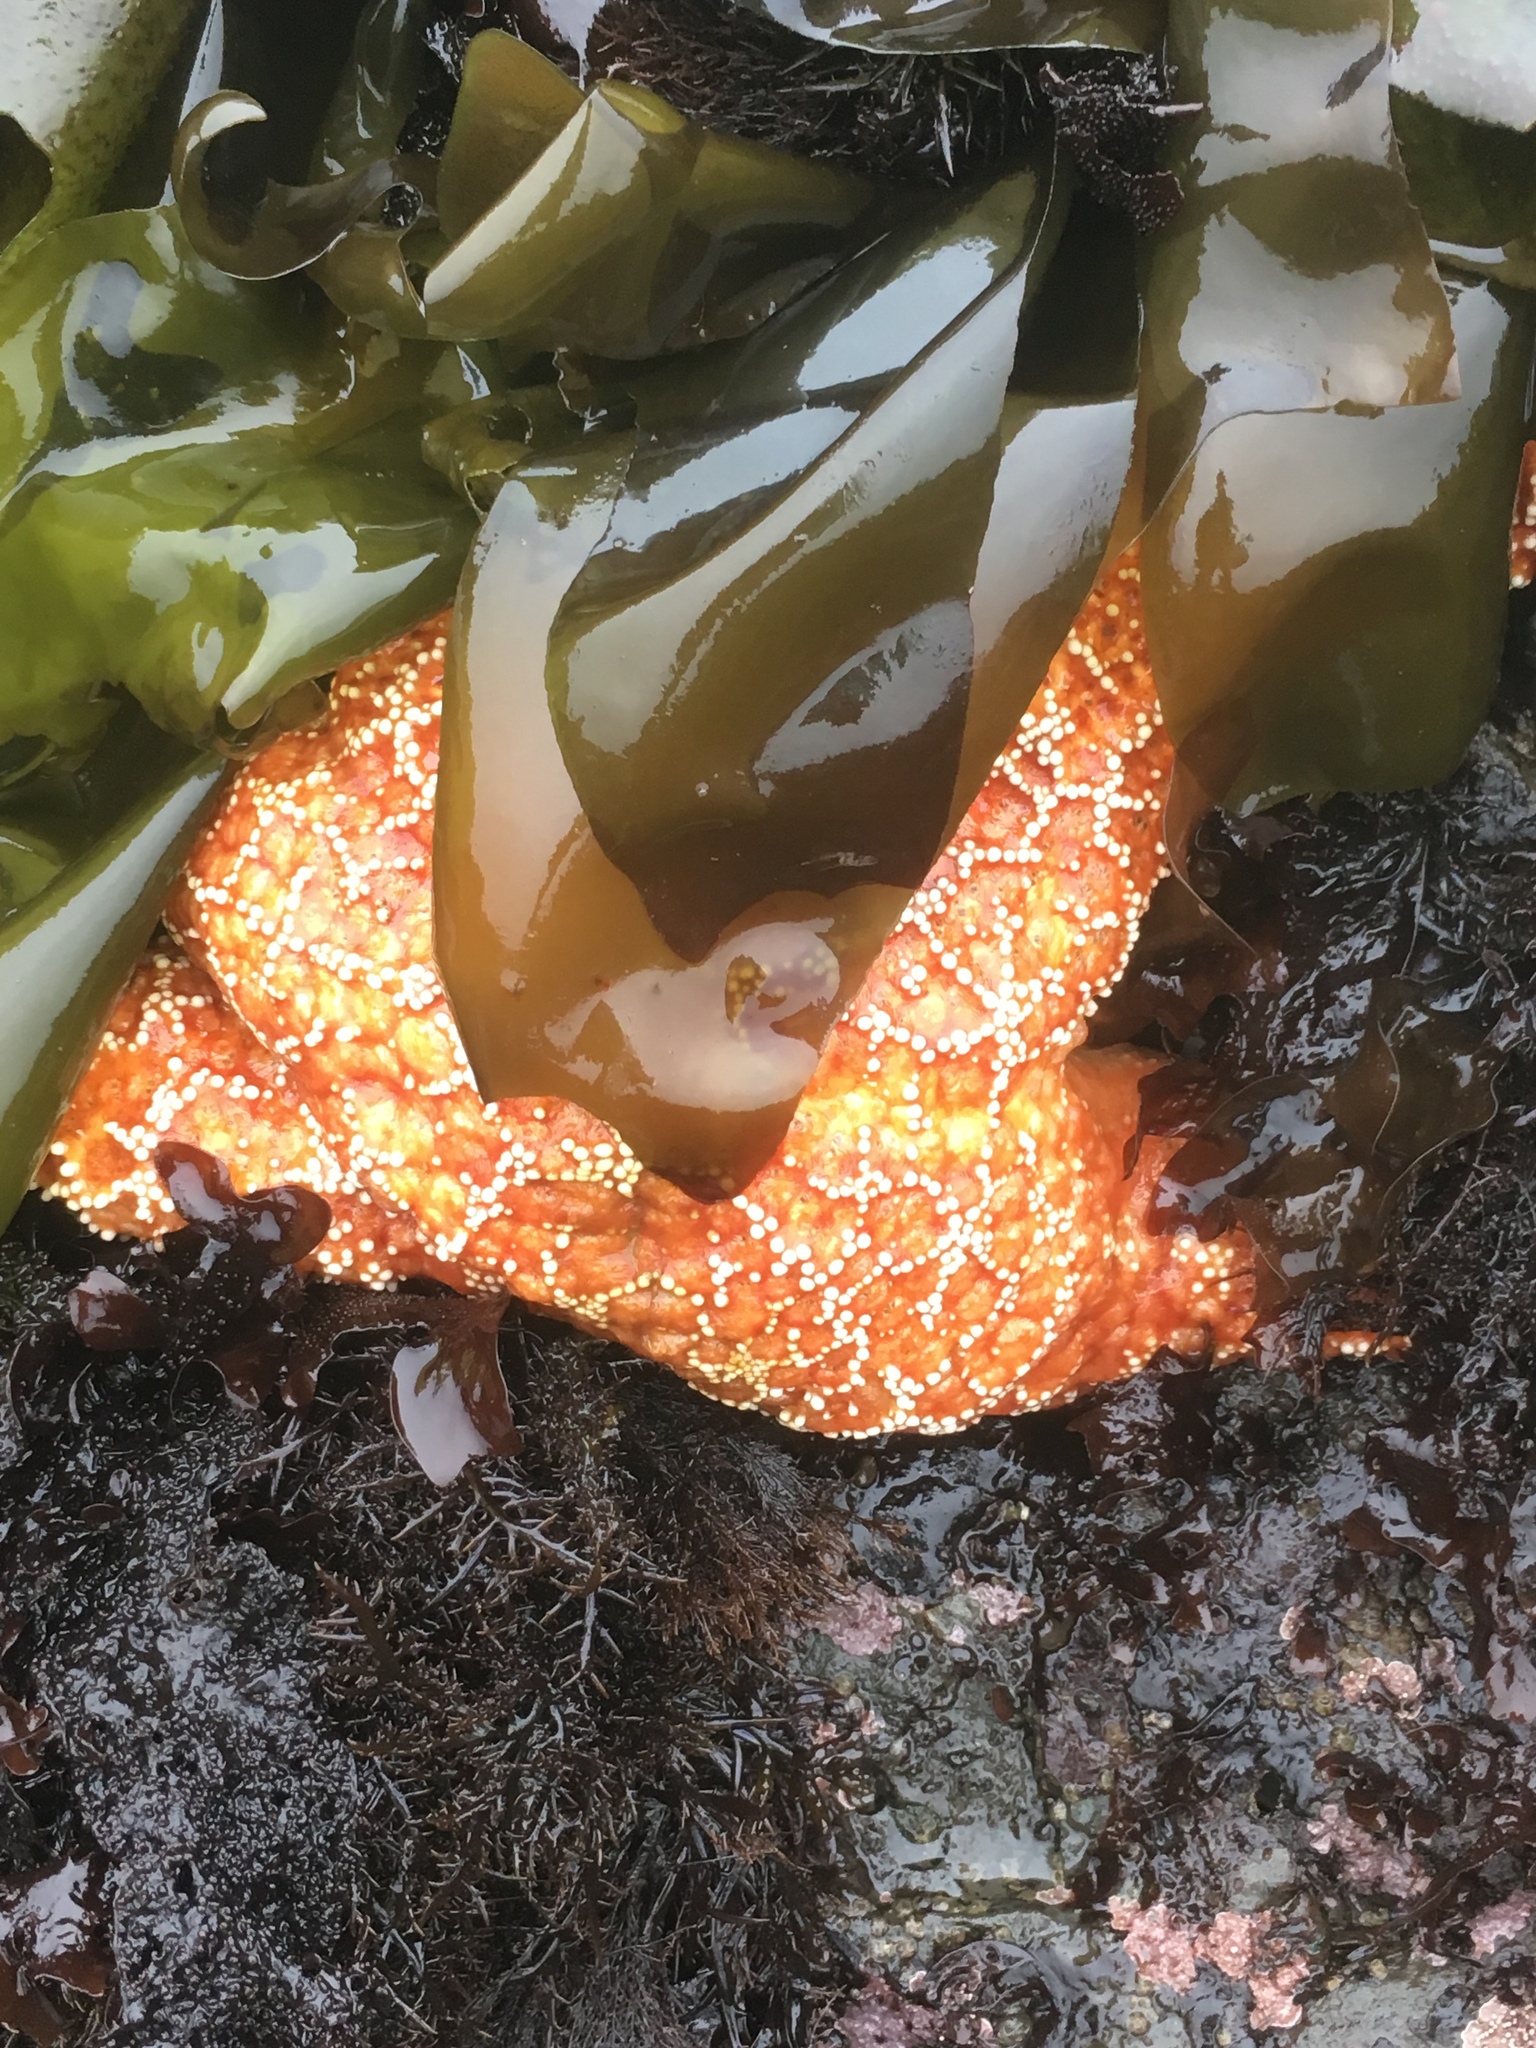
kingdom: Animalia
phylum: Echinodermata
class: Asteroidea
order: Forcipulatida
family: Asteriidae
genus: Pisaster
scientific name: Pisaster ochraceus
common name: Ochre stars
